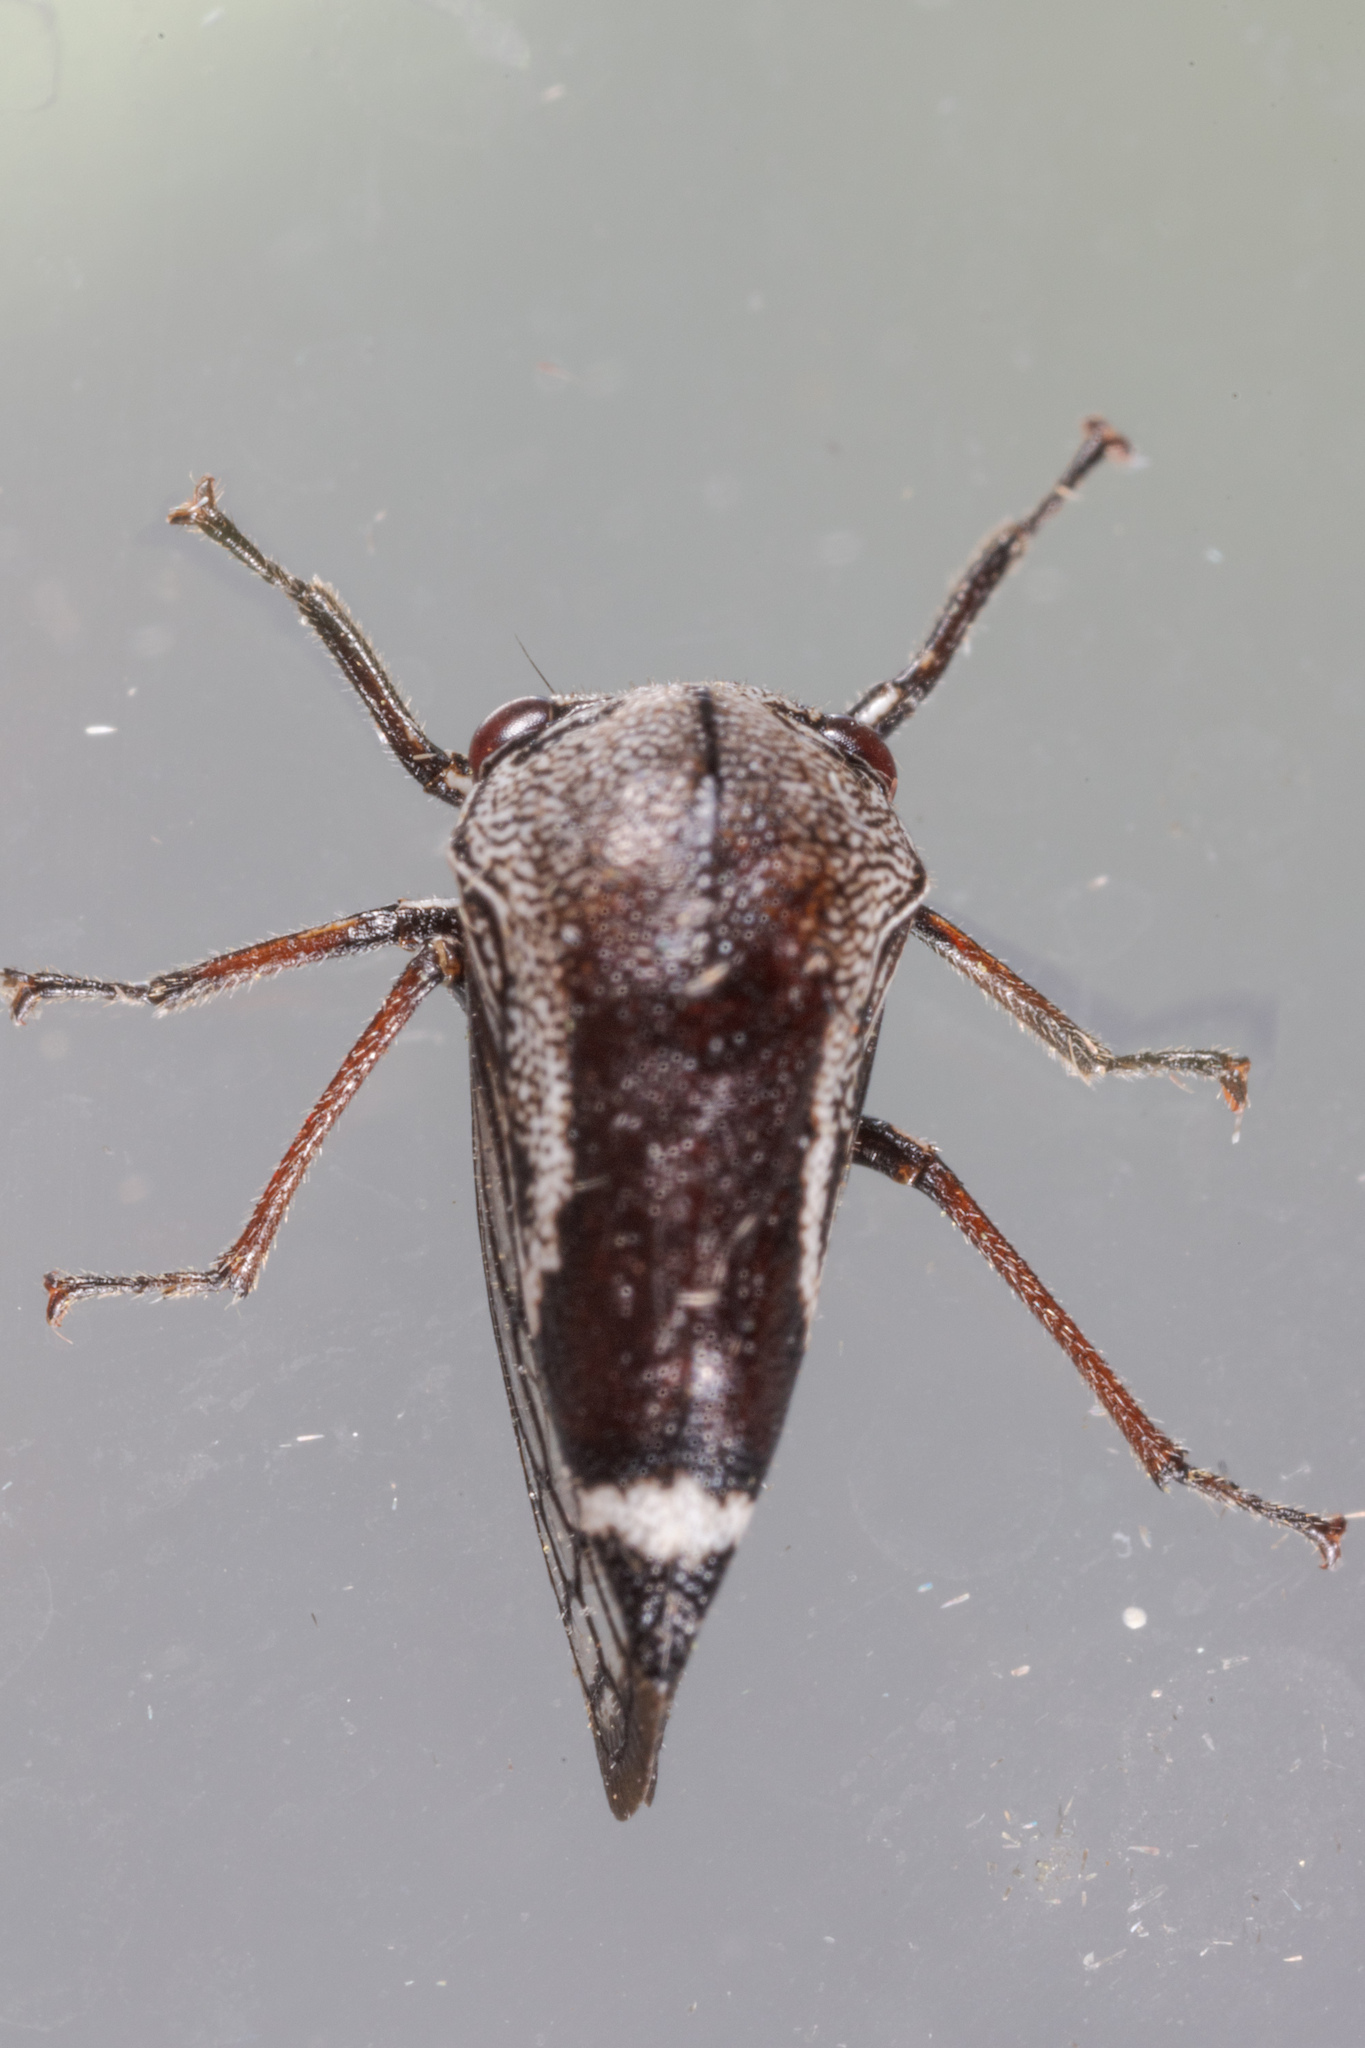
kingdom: Animalia
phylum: Arthropoda
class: Insecta
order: Hemiptera
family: Membracidae
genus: Xantholobus
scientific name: Xantholobus nigrocincta
